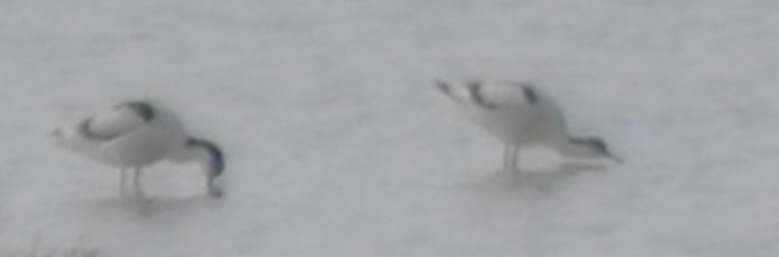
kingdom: Animalia
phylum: Chordata
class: Aves
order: Charadriiformes
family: Recurvirostridae
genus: Recurvirostra
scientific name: Recurvirostra avosetta
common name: Pied avocet
